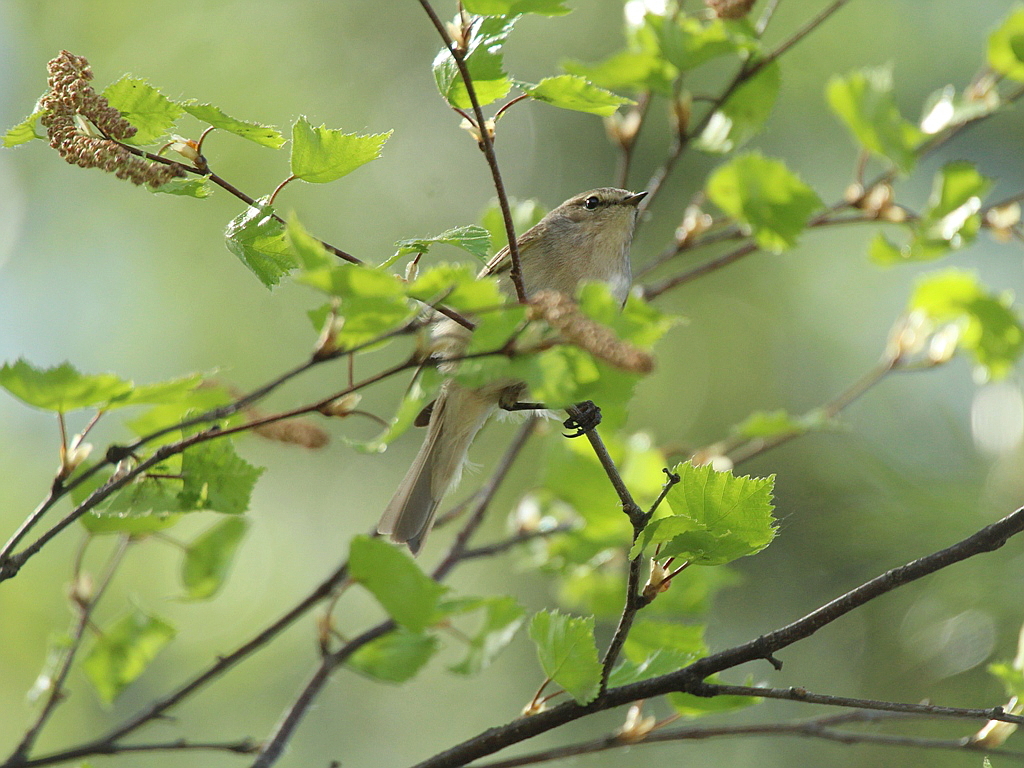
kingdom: Animalia
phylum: Chordata
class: Aves
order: Passeriformes
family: Phylloscopidae
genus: Phylloscopus
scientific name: Phylloscopus collybita
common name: Common chiffchaff
